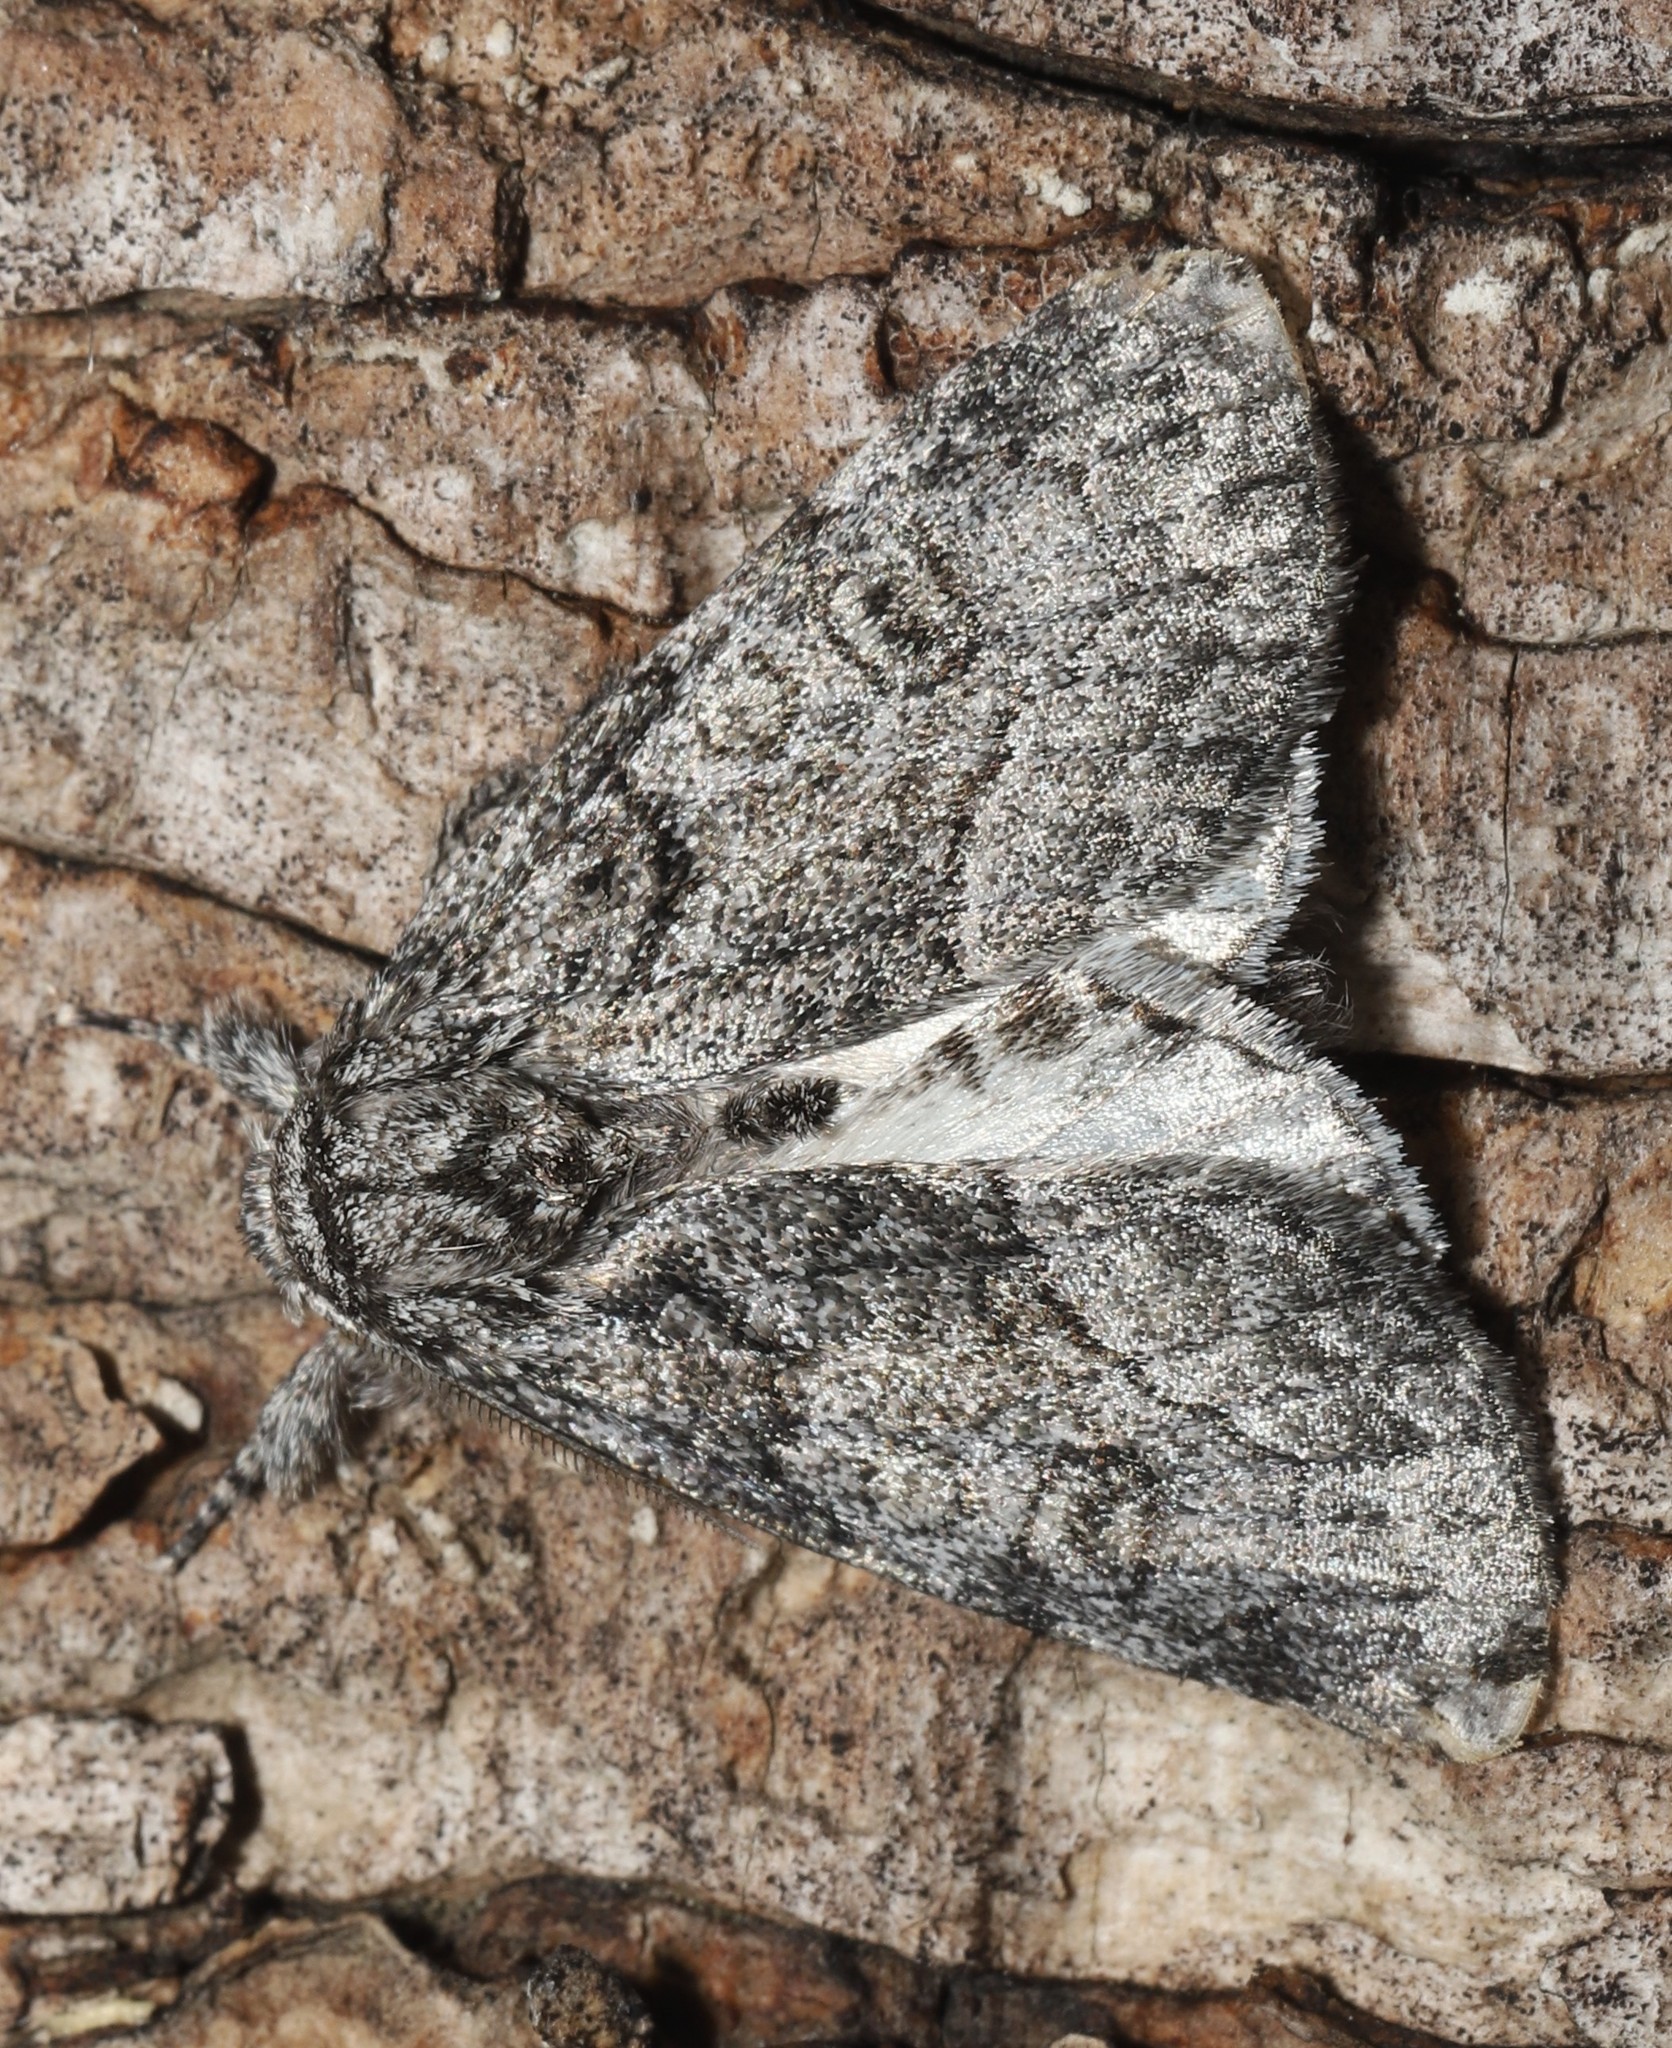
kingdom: Animalia
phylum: Arthropoda
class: Insecta
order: Lepidoptera
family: Noctuidae
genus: Raphia
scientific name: Raphia frater
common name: Brother
